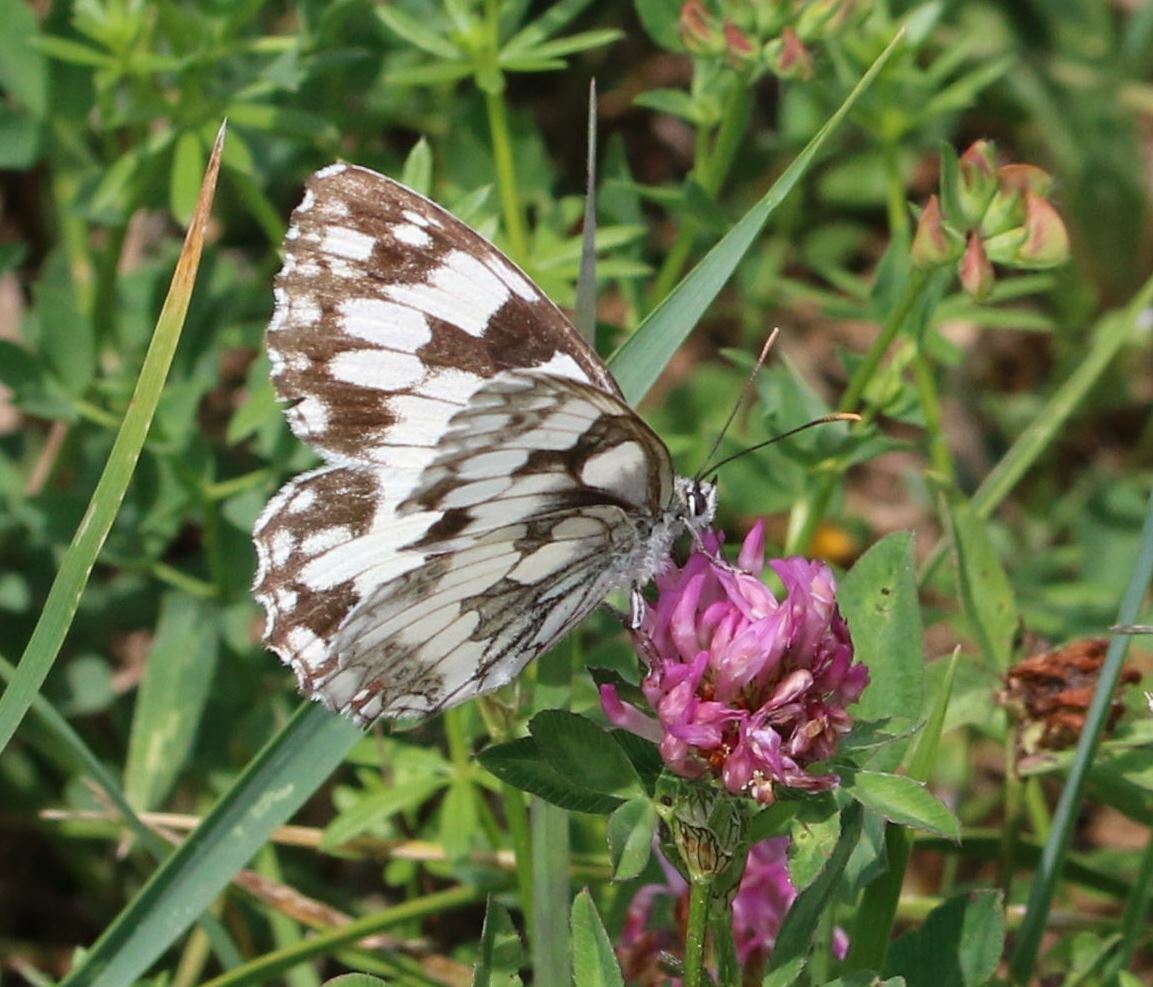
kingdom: Animalia
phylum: Arthropoda
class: Insecta
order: Lepidoptera
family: Nymphalidae
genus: Melanargia
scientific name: Melanargia galathea
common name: Marbled white
